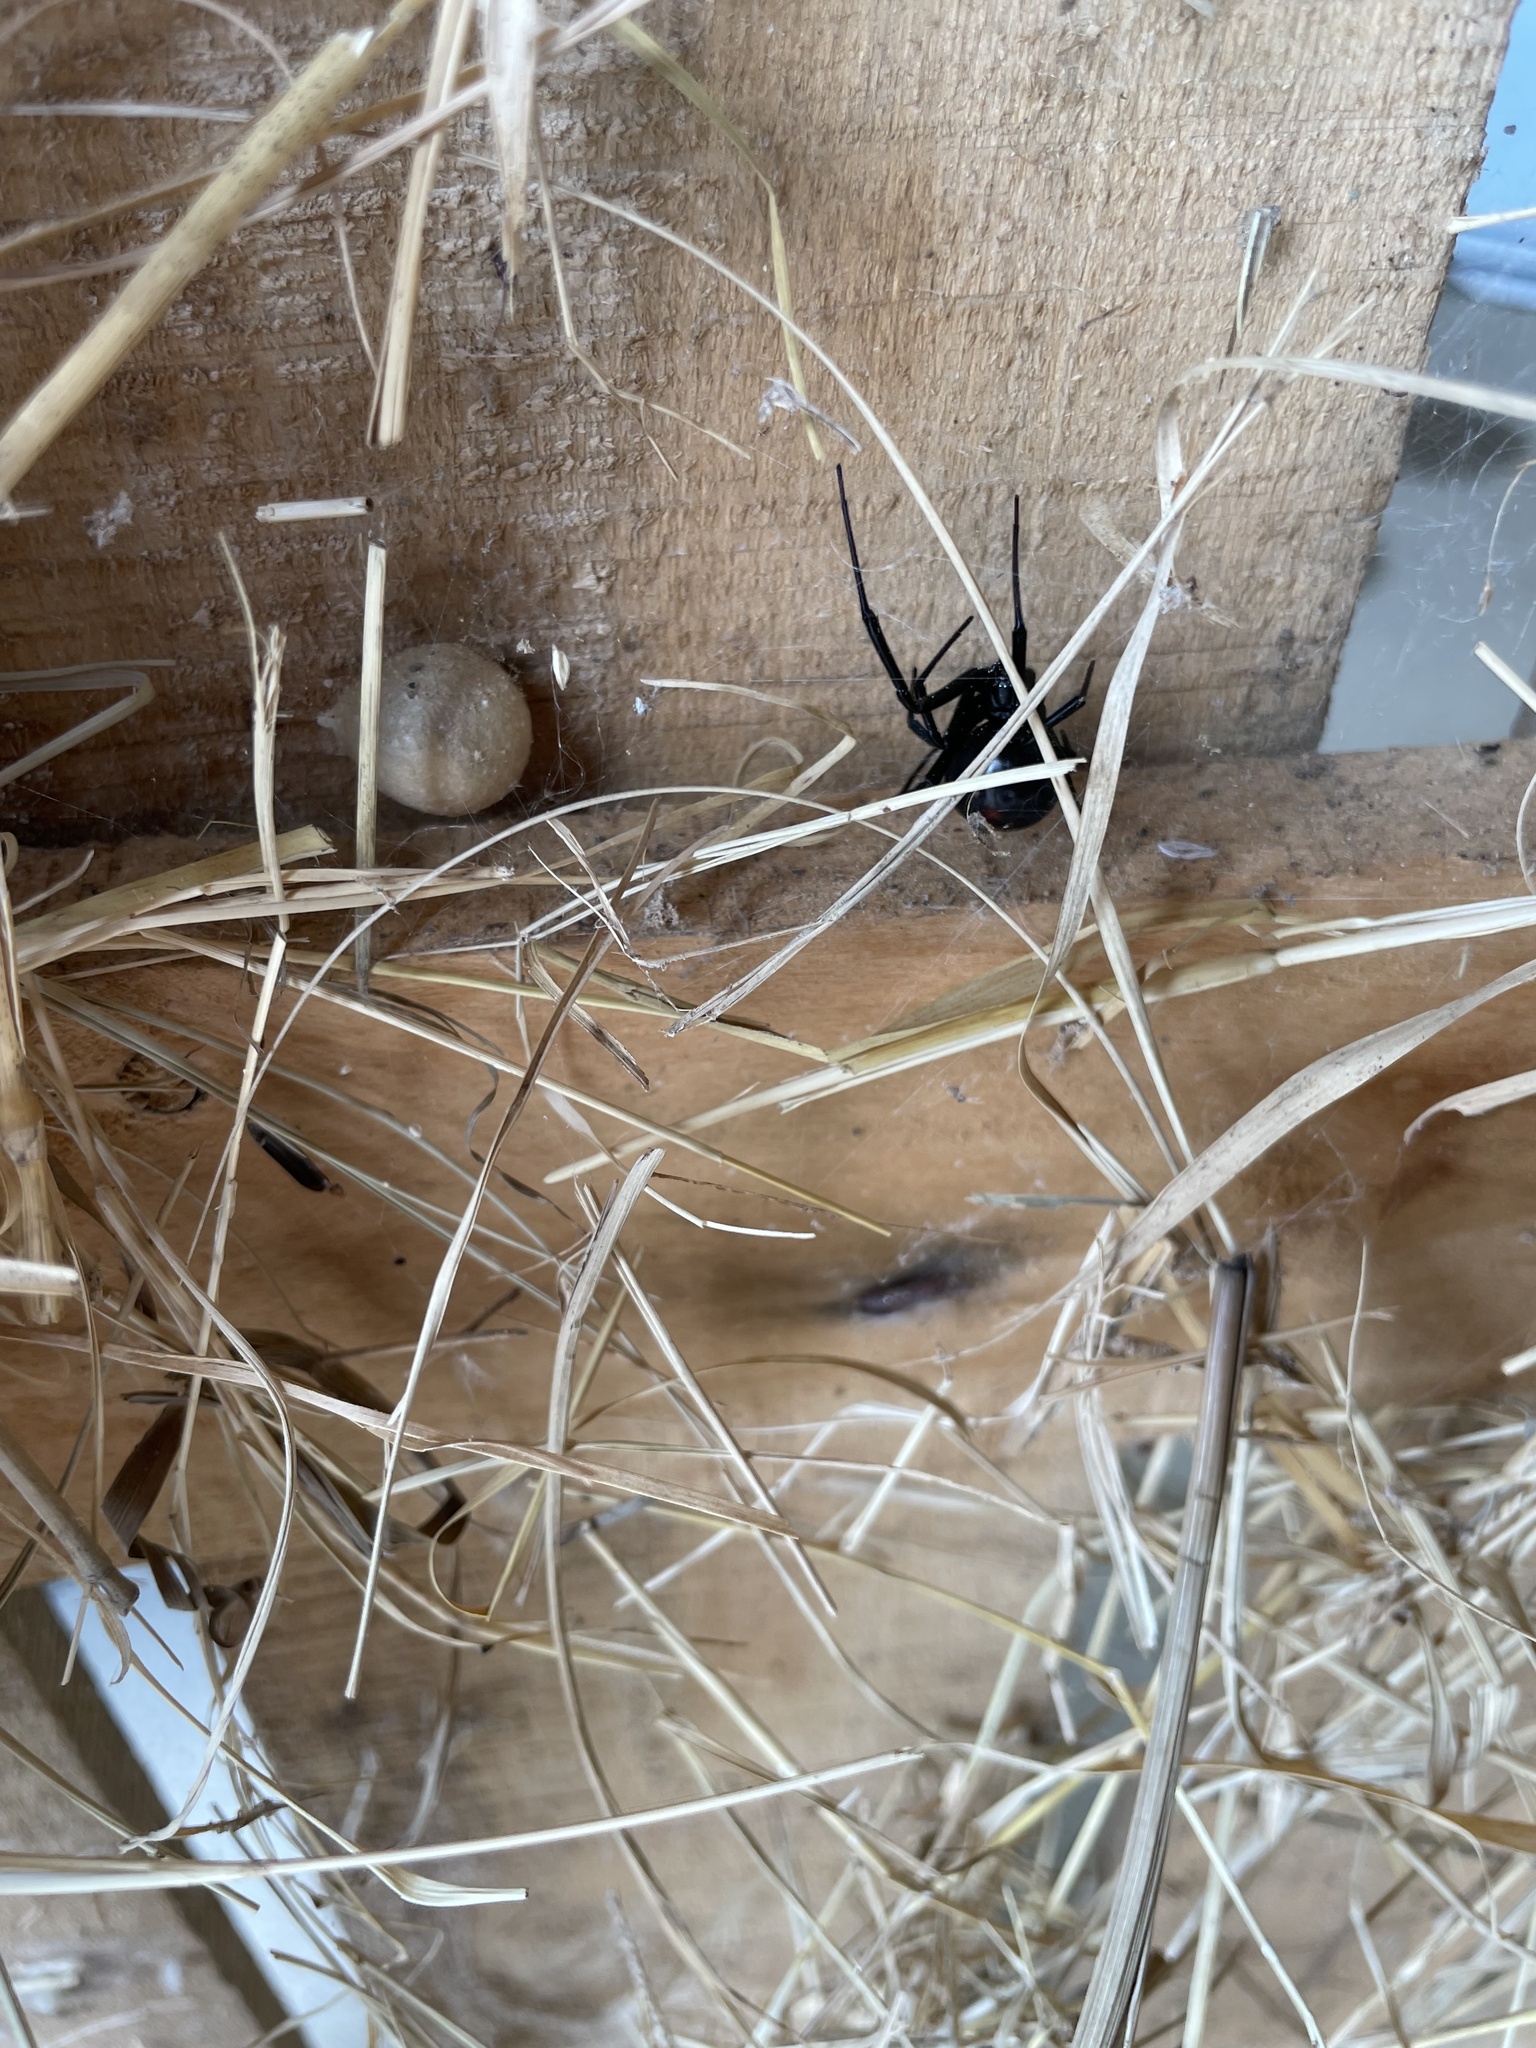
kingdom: Animalia
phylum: Arthropoda
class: Arachnida
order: Araneae
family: Theridiidae
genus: Latrodectus
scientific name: Latrodectus mactans
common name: Cobweb spiders
